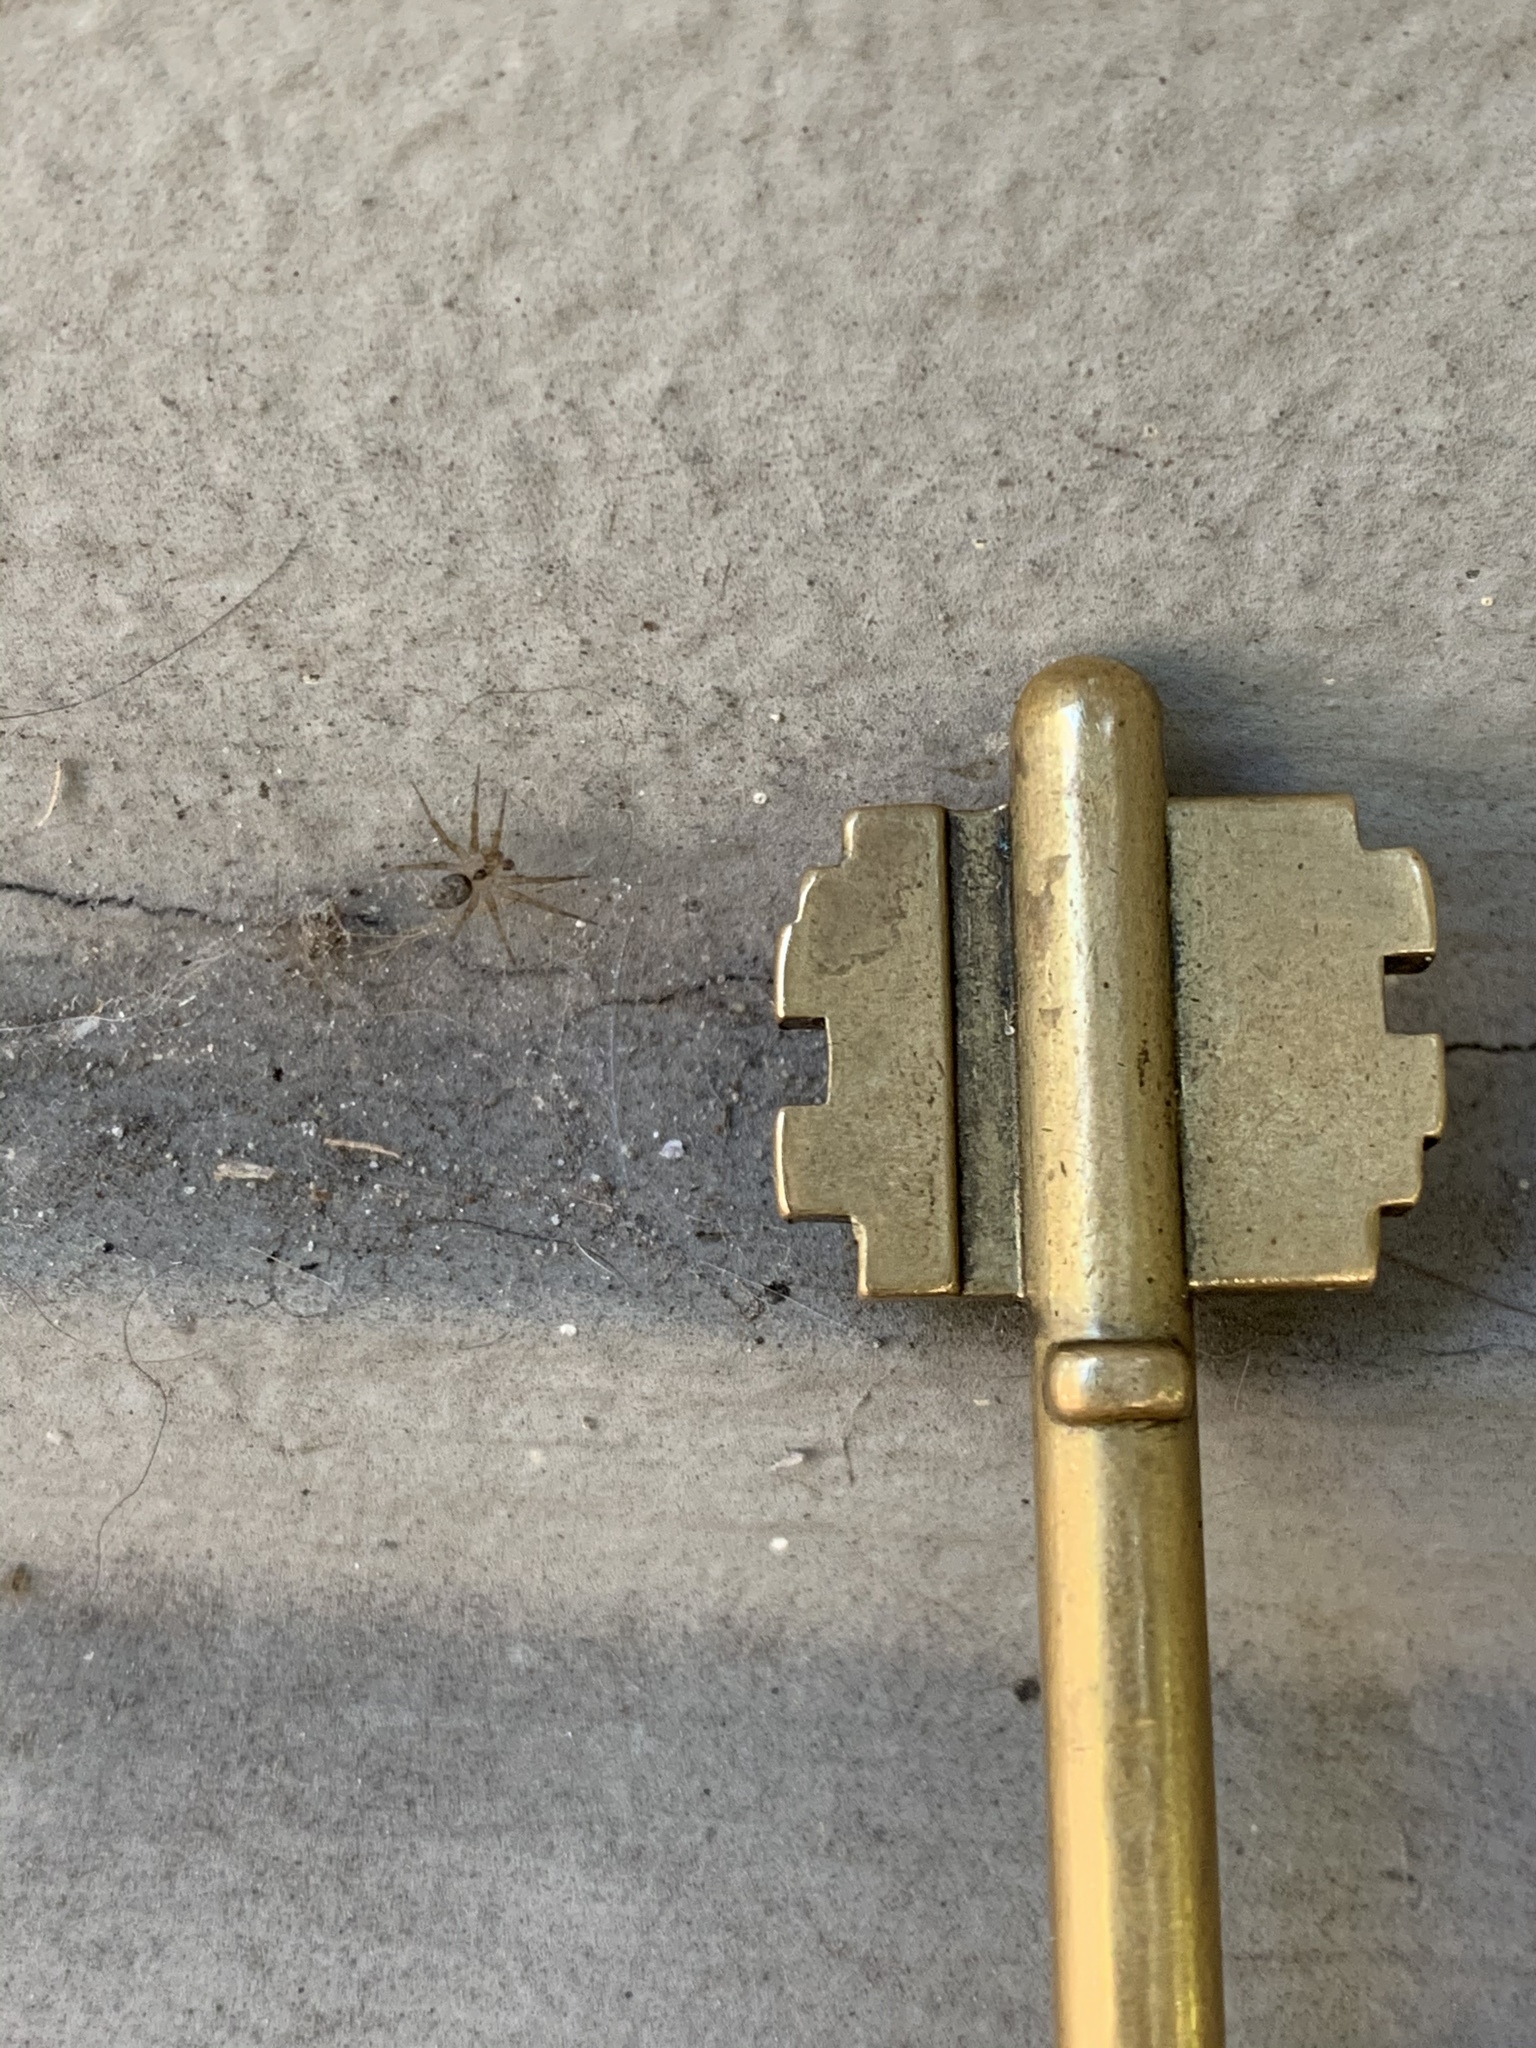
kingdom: Animalia
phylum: Arthropoda
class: Arachnida
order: Araneae
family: Oecobiidae
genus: Oecobius
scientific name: Oecobius navus
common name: Flatmesh weaver
